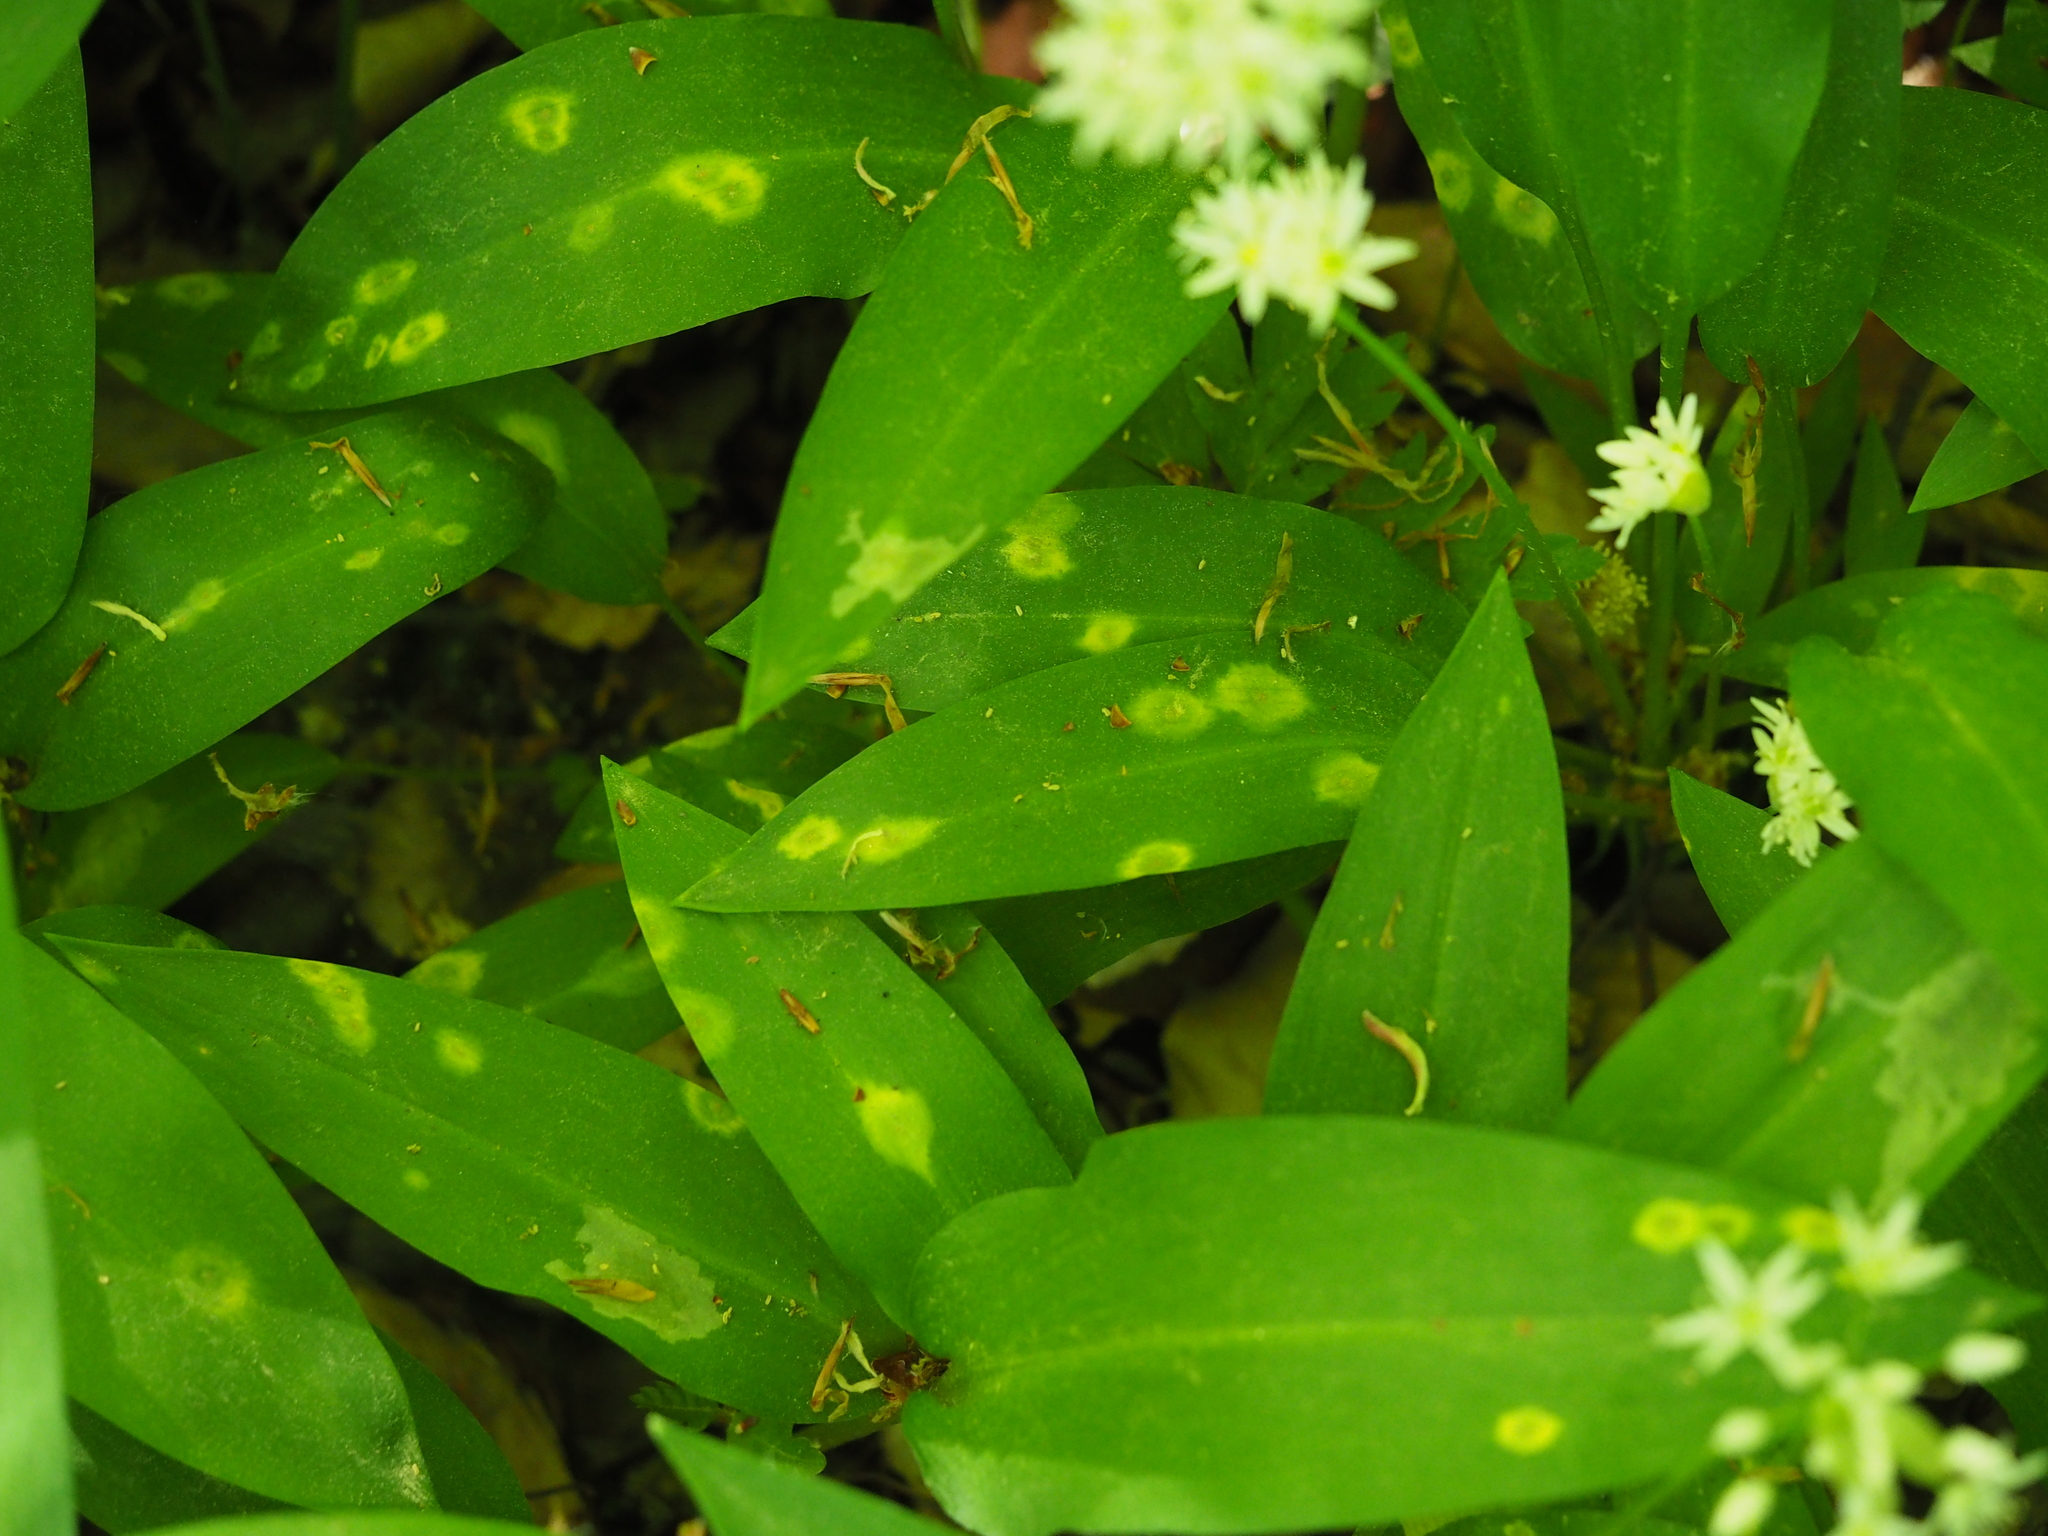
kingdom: Fungi
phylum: Basidiomycota
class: Pucciniomycetes
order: Pucciniales
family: Pucciniaceae
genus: Caeoma
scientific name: Caeoma allii-ursini
